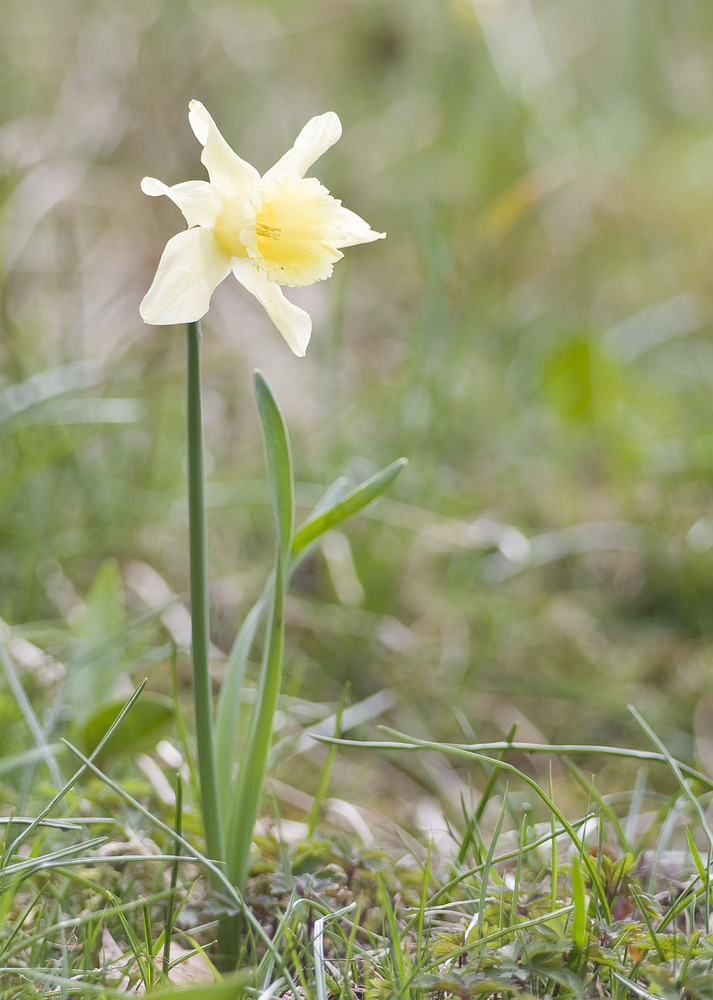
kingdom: Plantae
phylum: Tracheophyta
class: Liliopsida
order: Asparagales
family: Amaryllidaceae
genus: Narcissus
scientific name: Narcissus pseudonarcissus
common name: Daffodil
